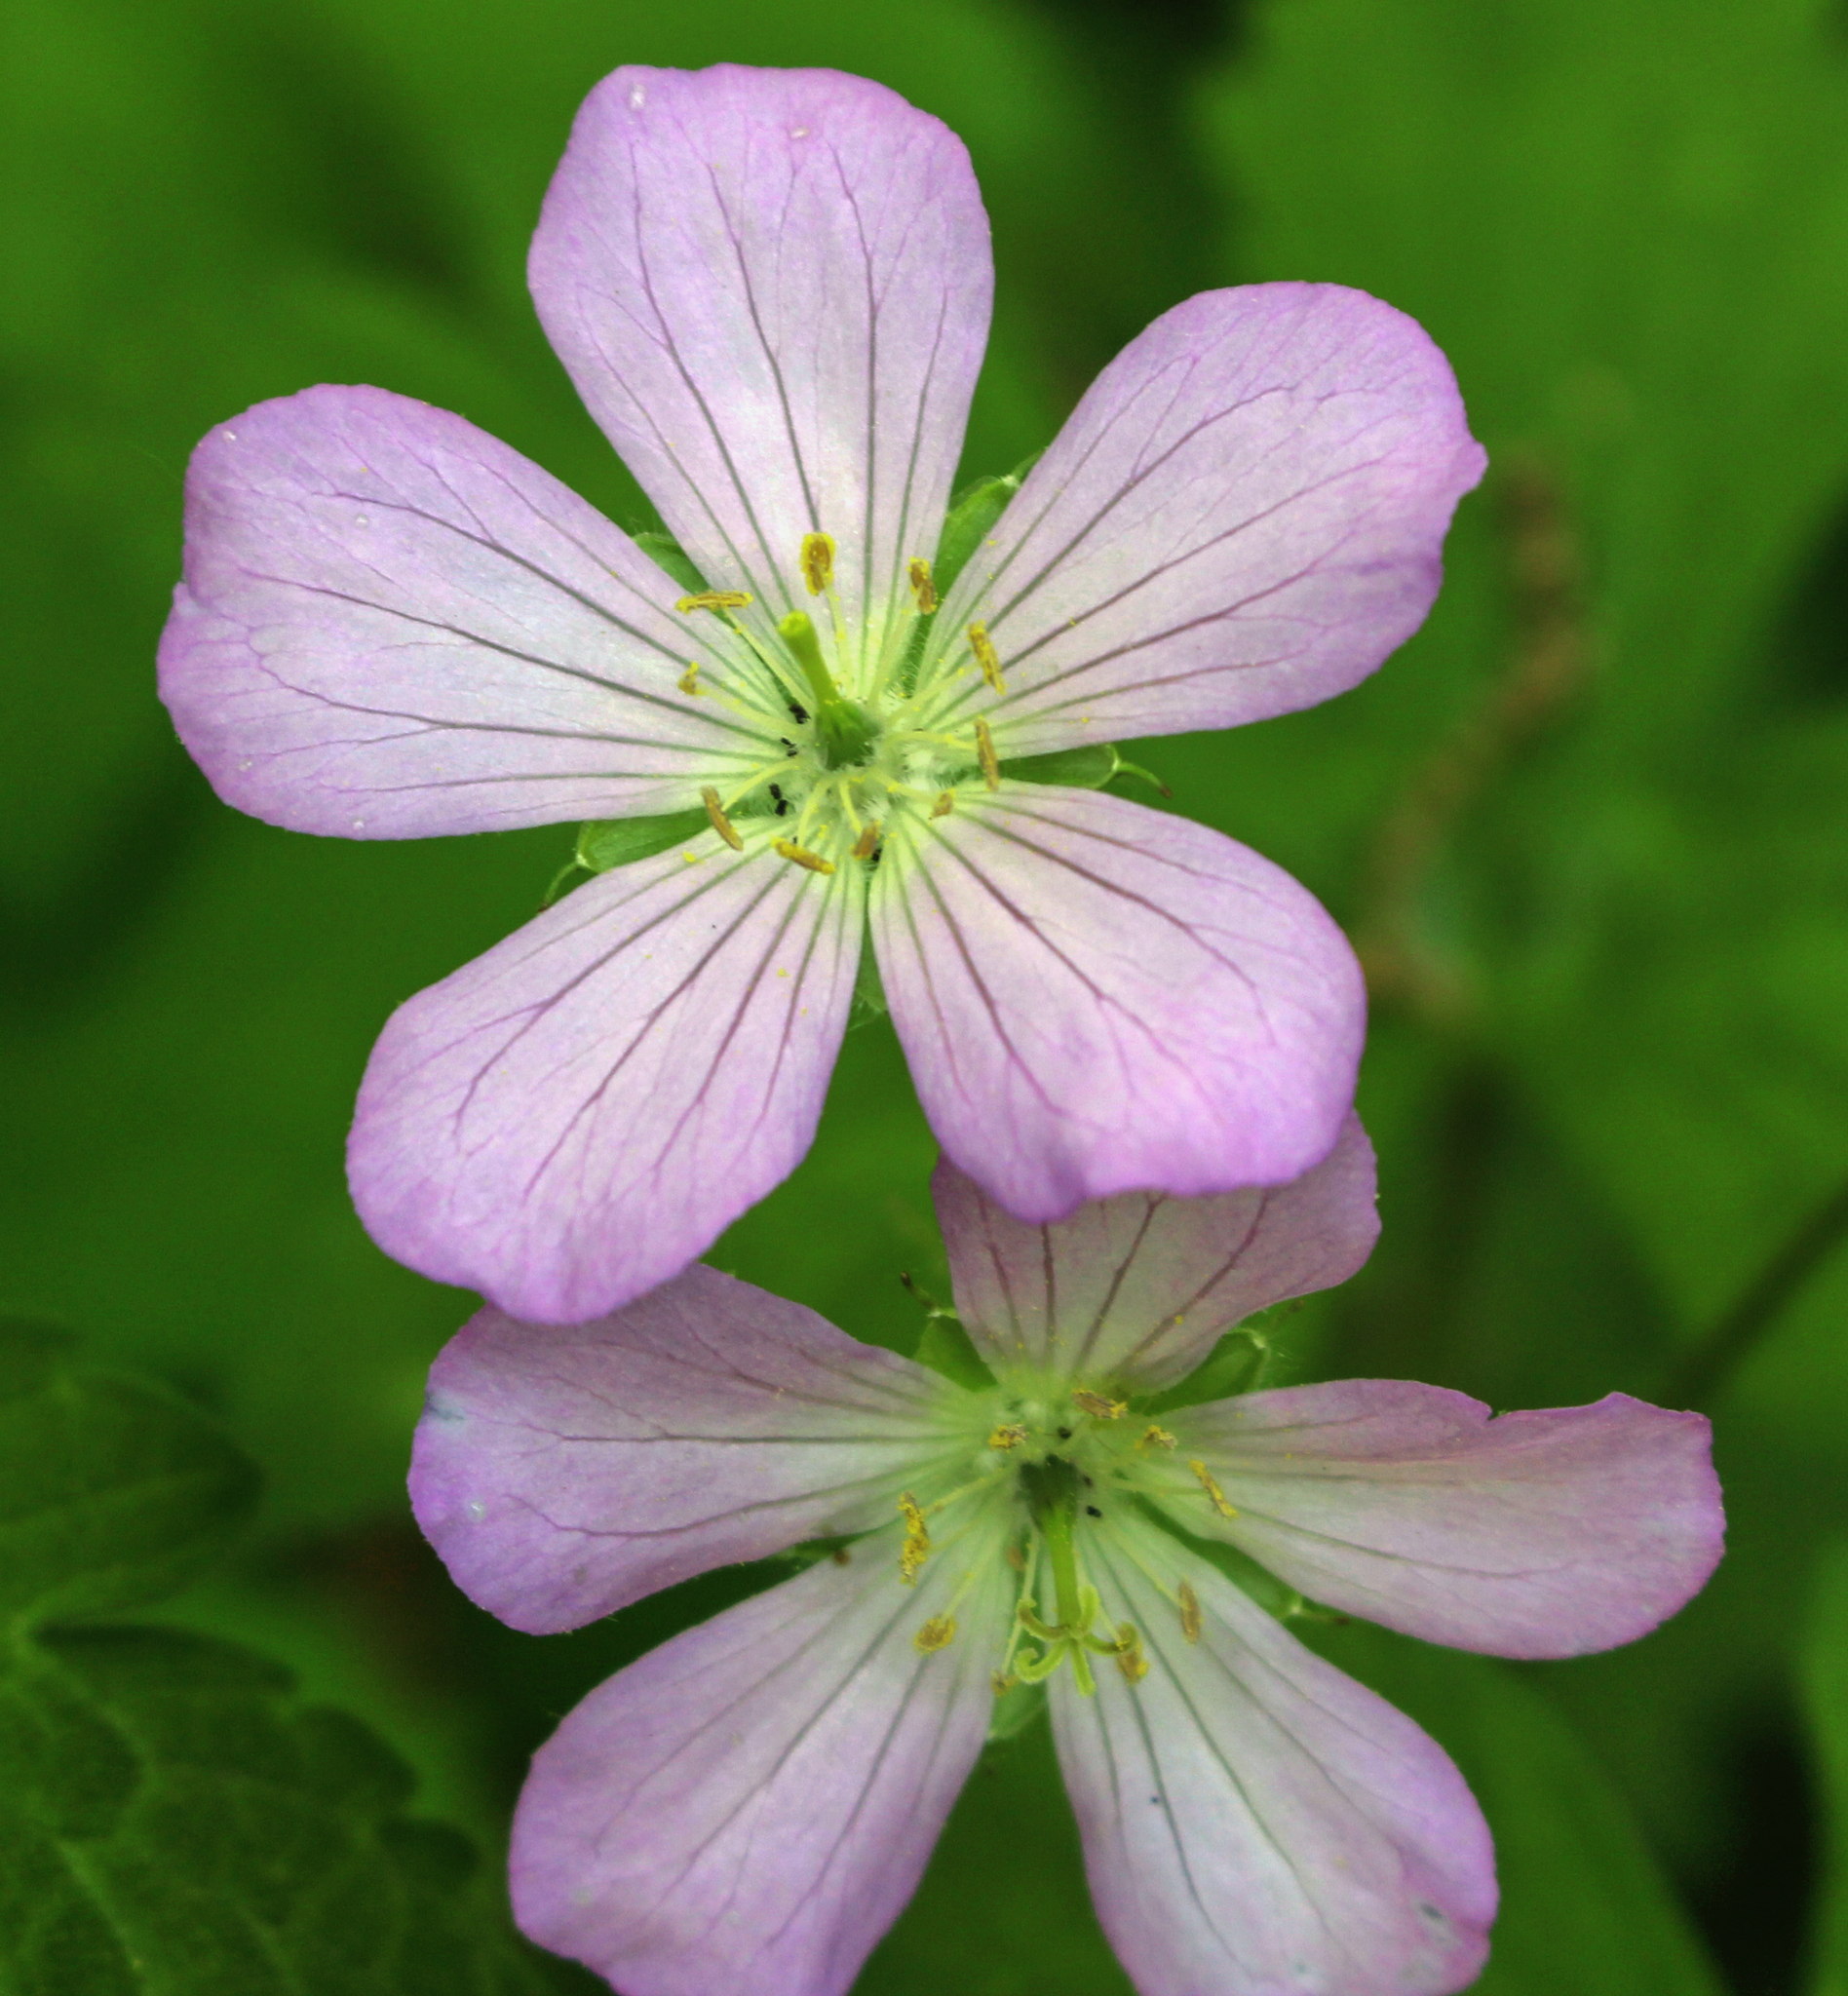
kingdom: Plantae
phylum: Tracheophyta
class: Magnoliopsida
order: Geraniales
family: Geraniaceae
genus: Geranium
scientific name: Geranium maculatum
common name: Spotted geranium
